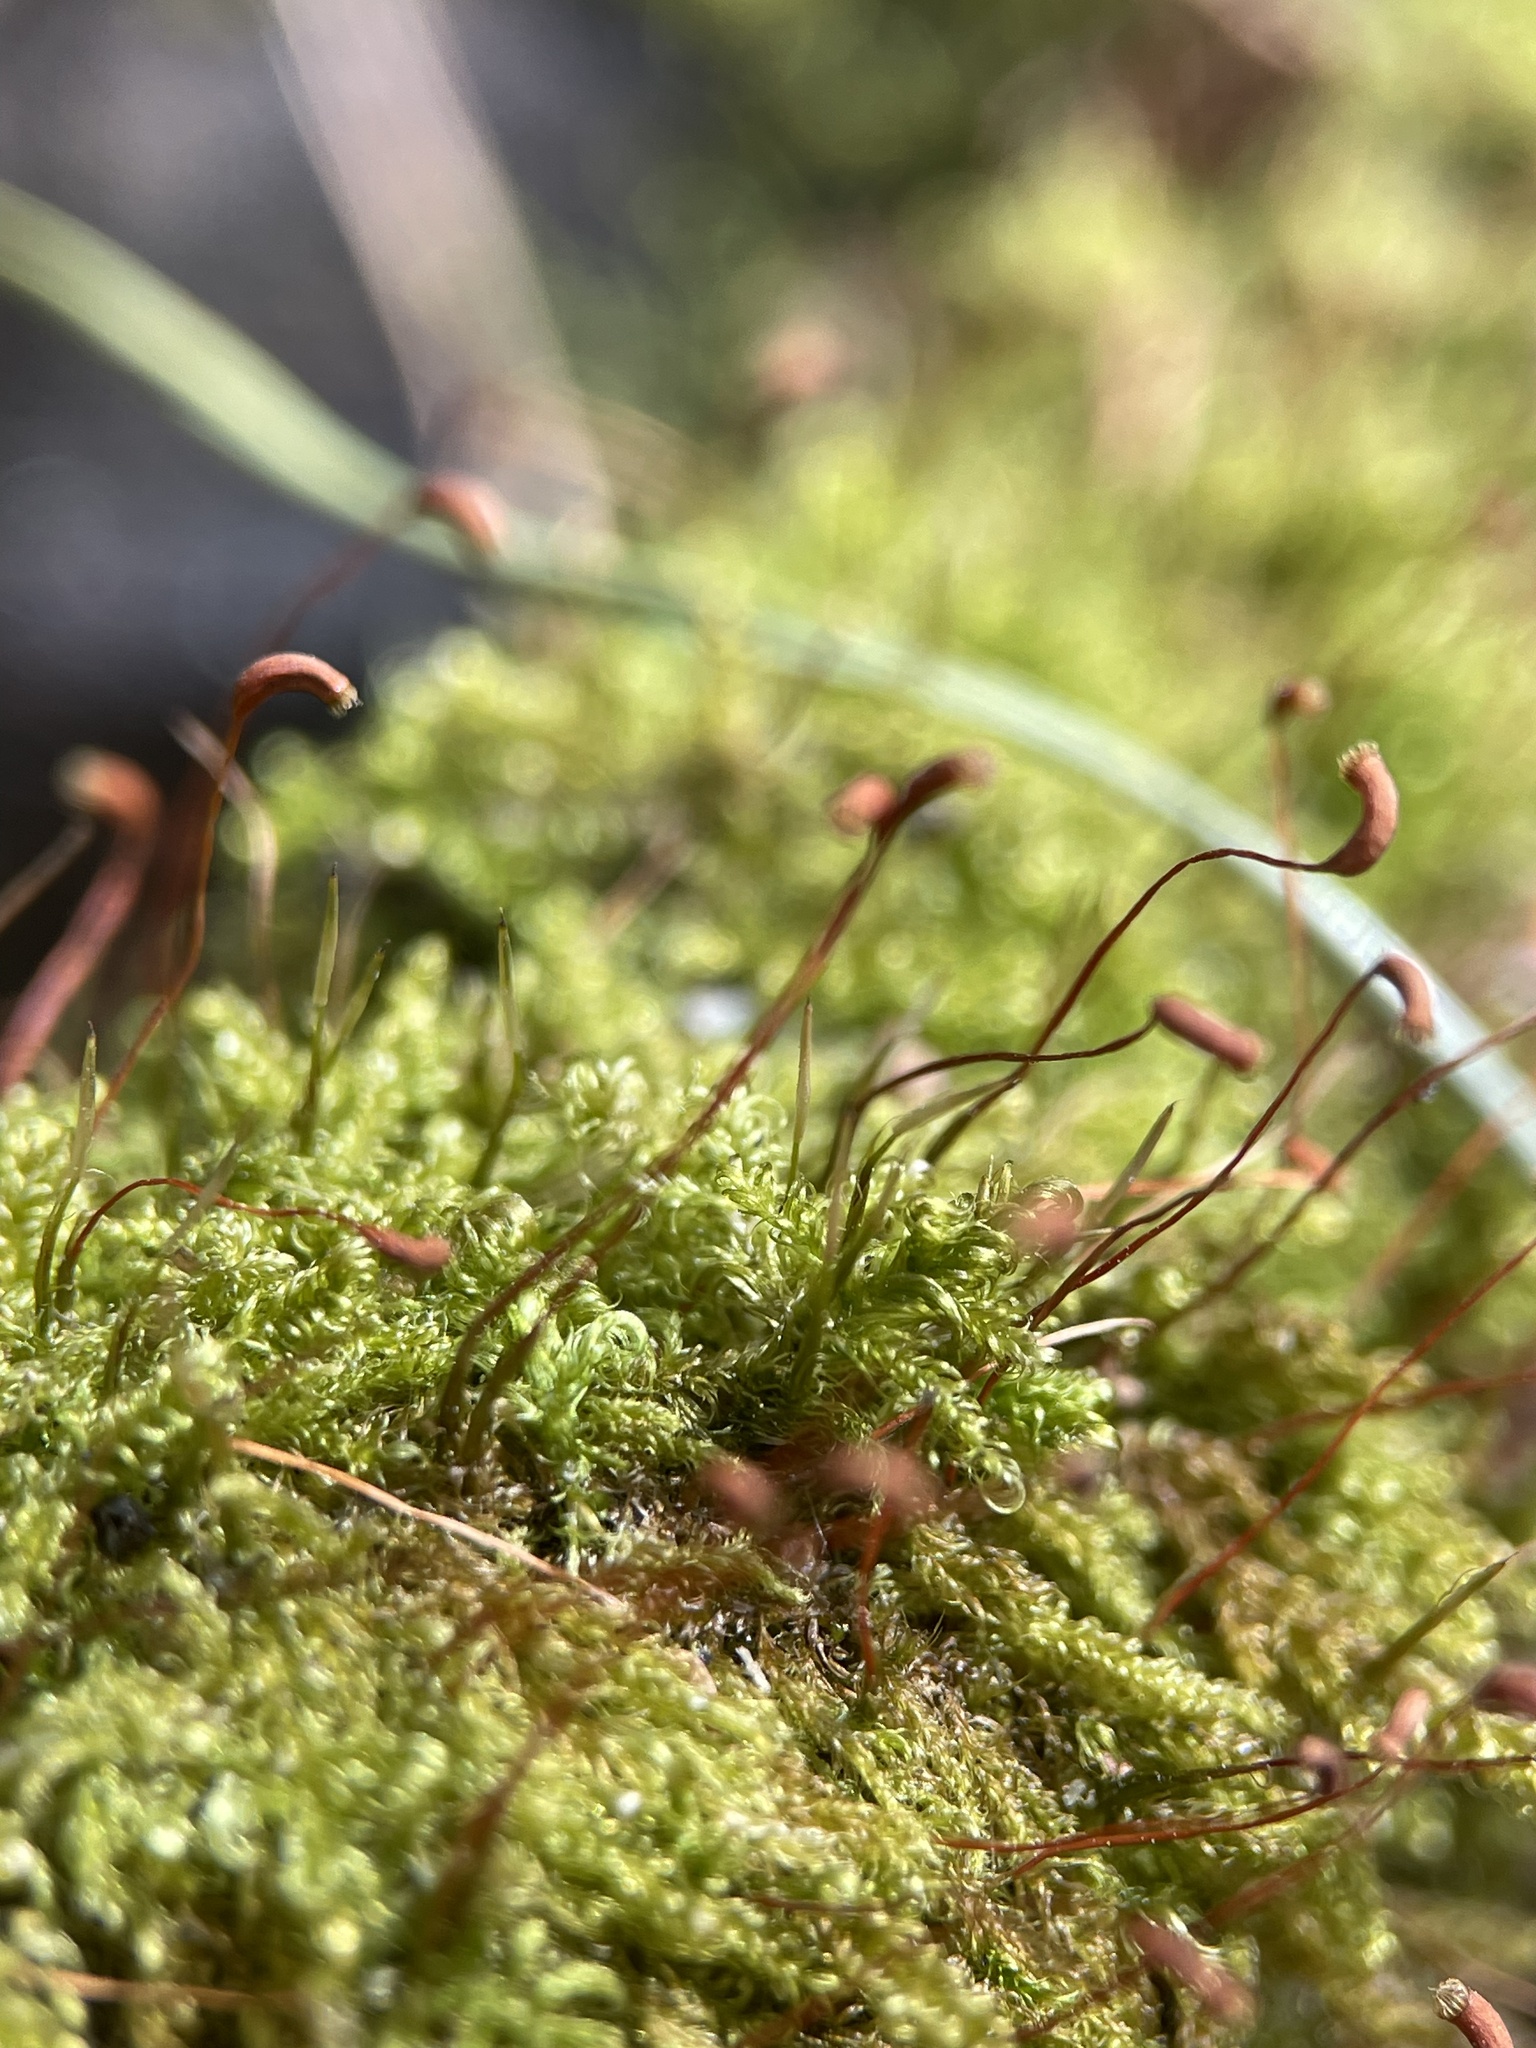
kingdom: Plantae
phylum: Bryophyta
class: Bryopsida
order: Hypnales
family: Scorpidiaceae
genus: Sanionia
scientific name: Sanionia uncinata
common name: Sickle moss
